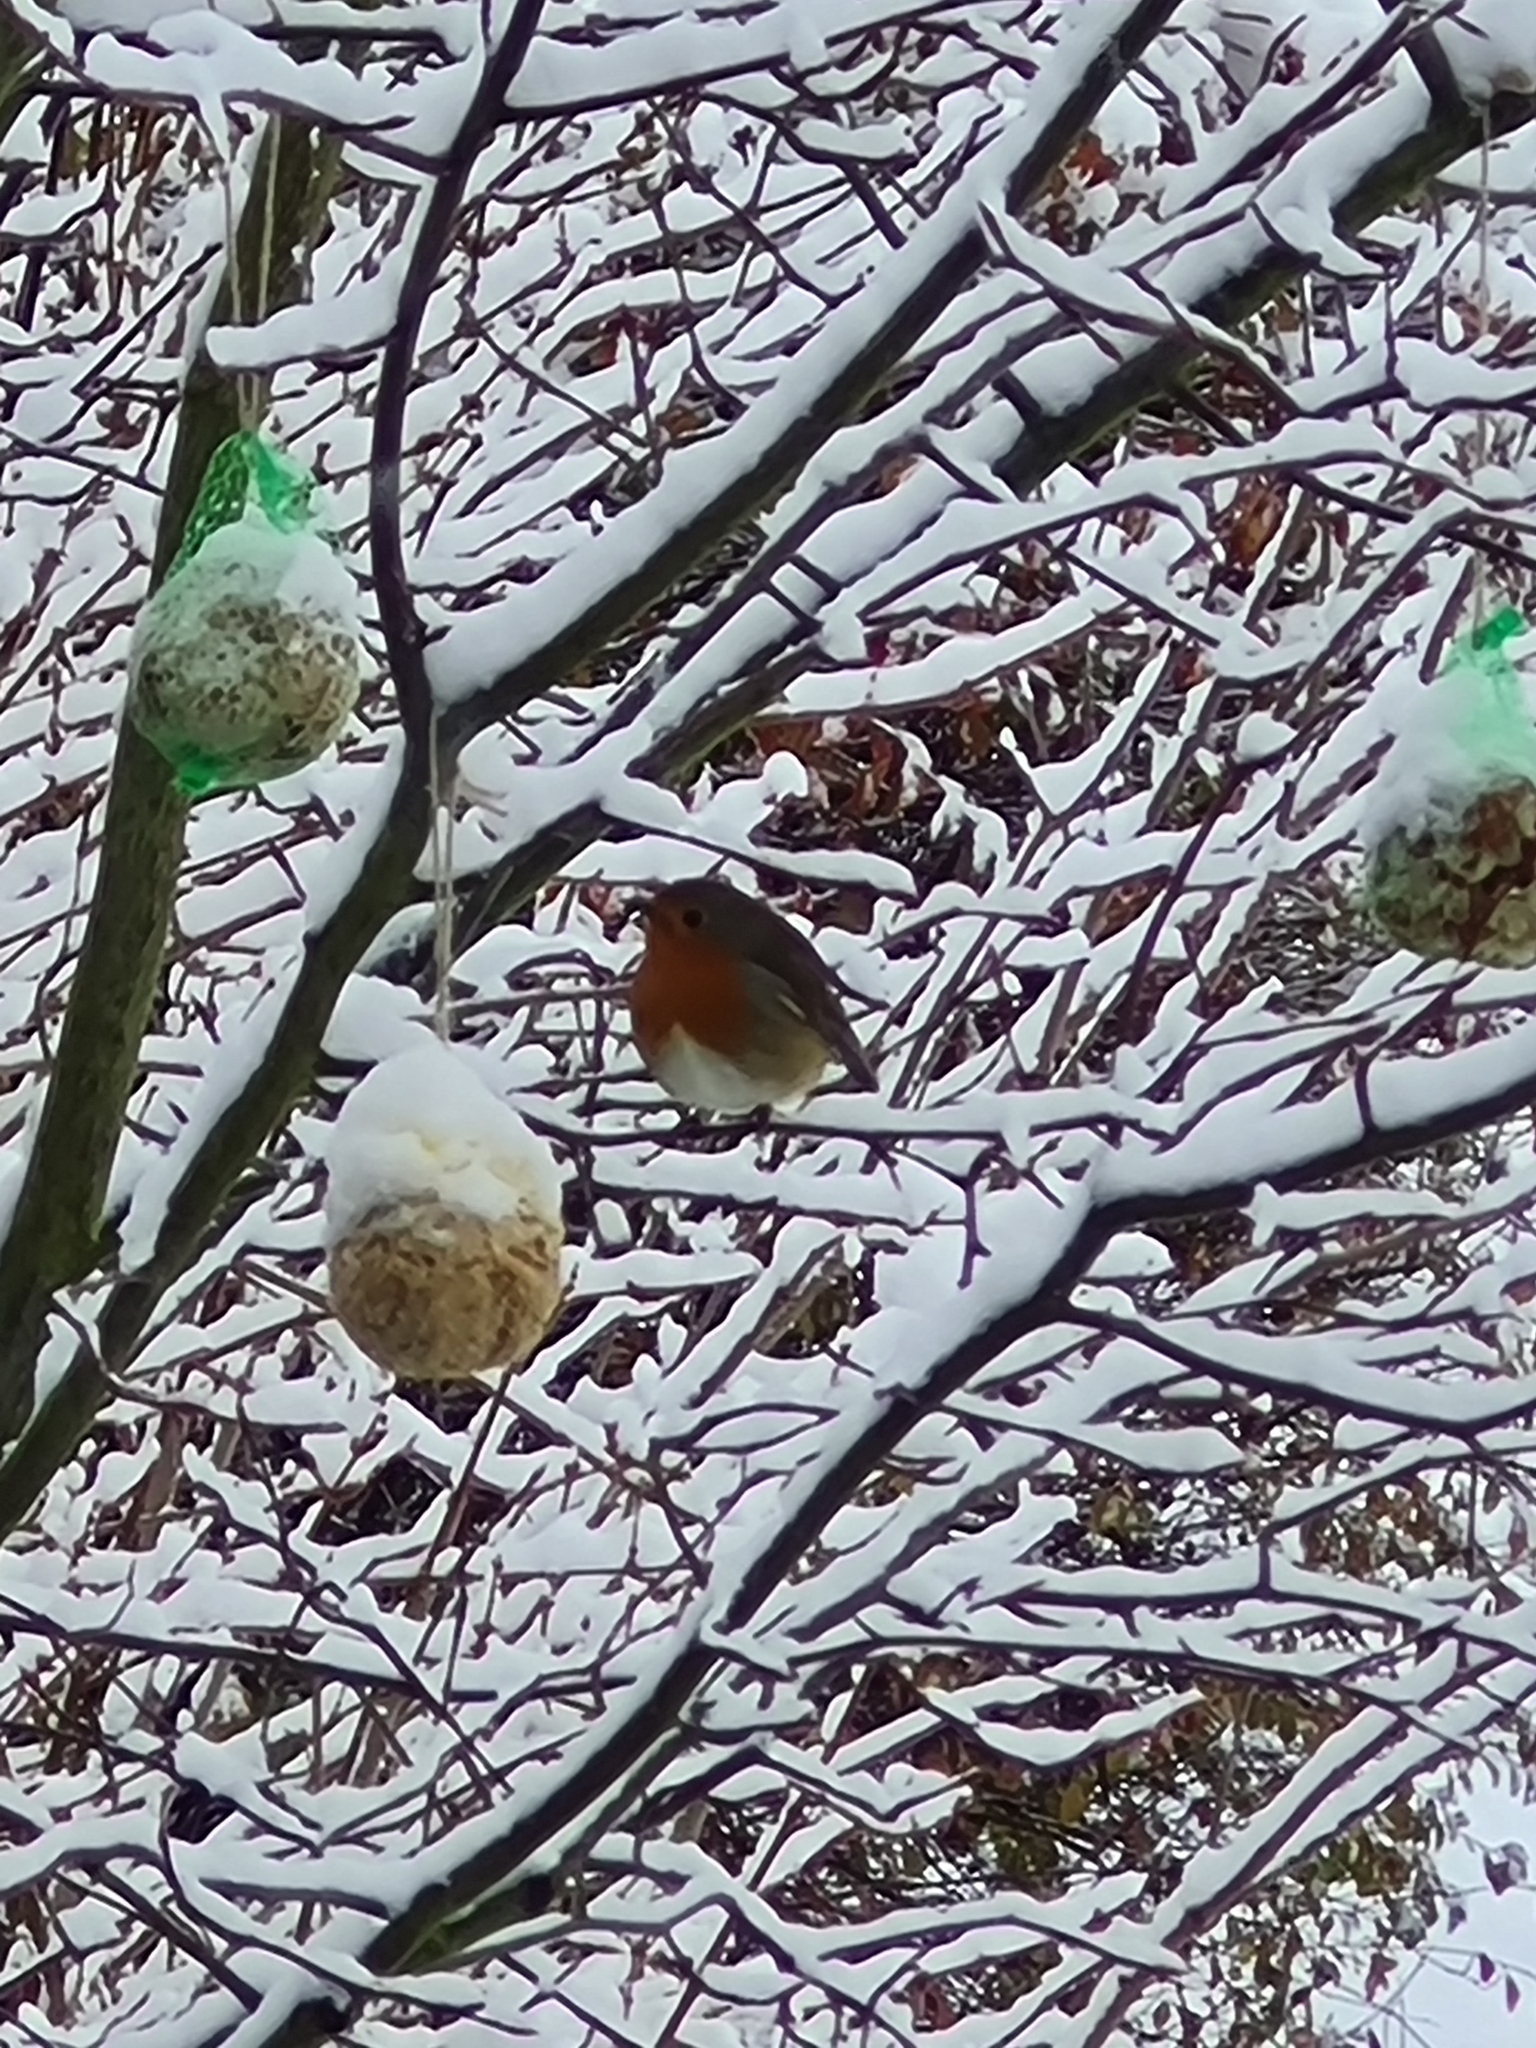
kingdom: Animalia
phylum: Chordata
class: Aves
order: Passeriformes
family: Muscicapidae
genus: Erithacus
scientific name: Erithacus rubecula
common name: European robin
